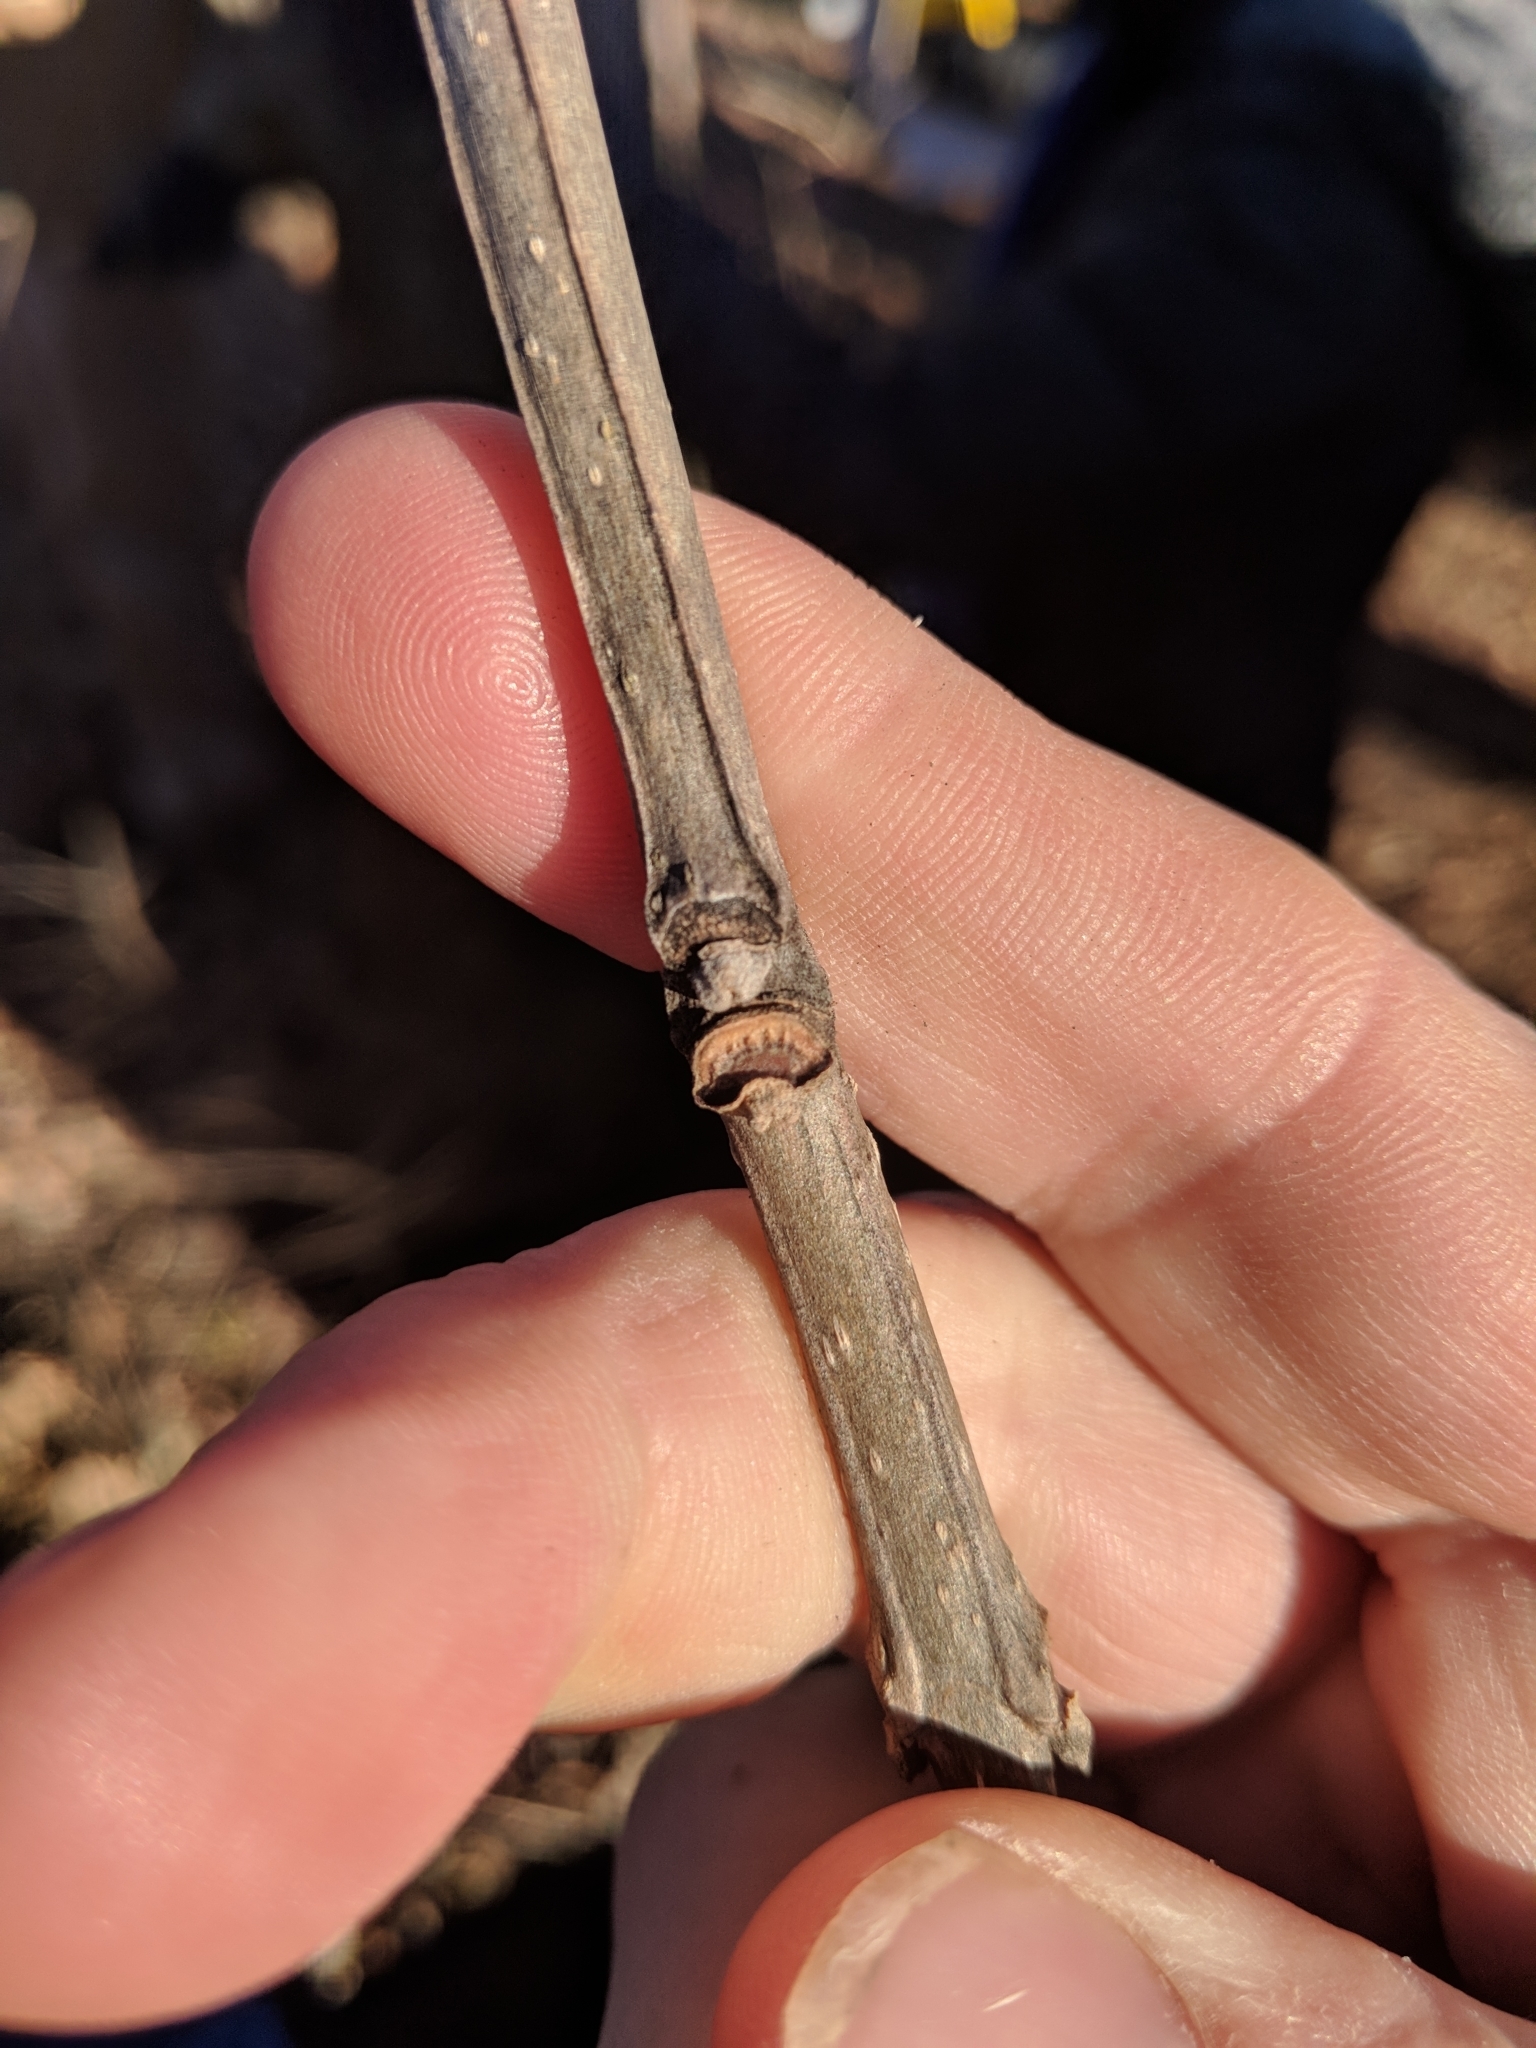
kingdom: Plantae
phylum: Tracheophyta
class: Magnoliopsida
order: Lamiales
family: Oleaceae
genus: Fraxinus
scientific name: Fraxinus quadrangulata
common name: Blue ash
